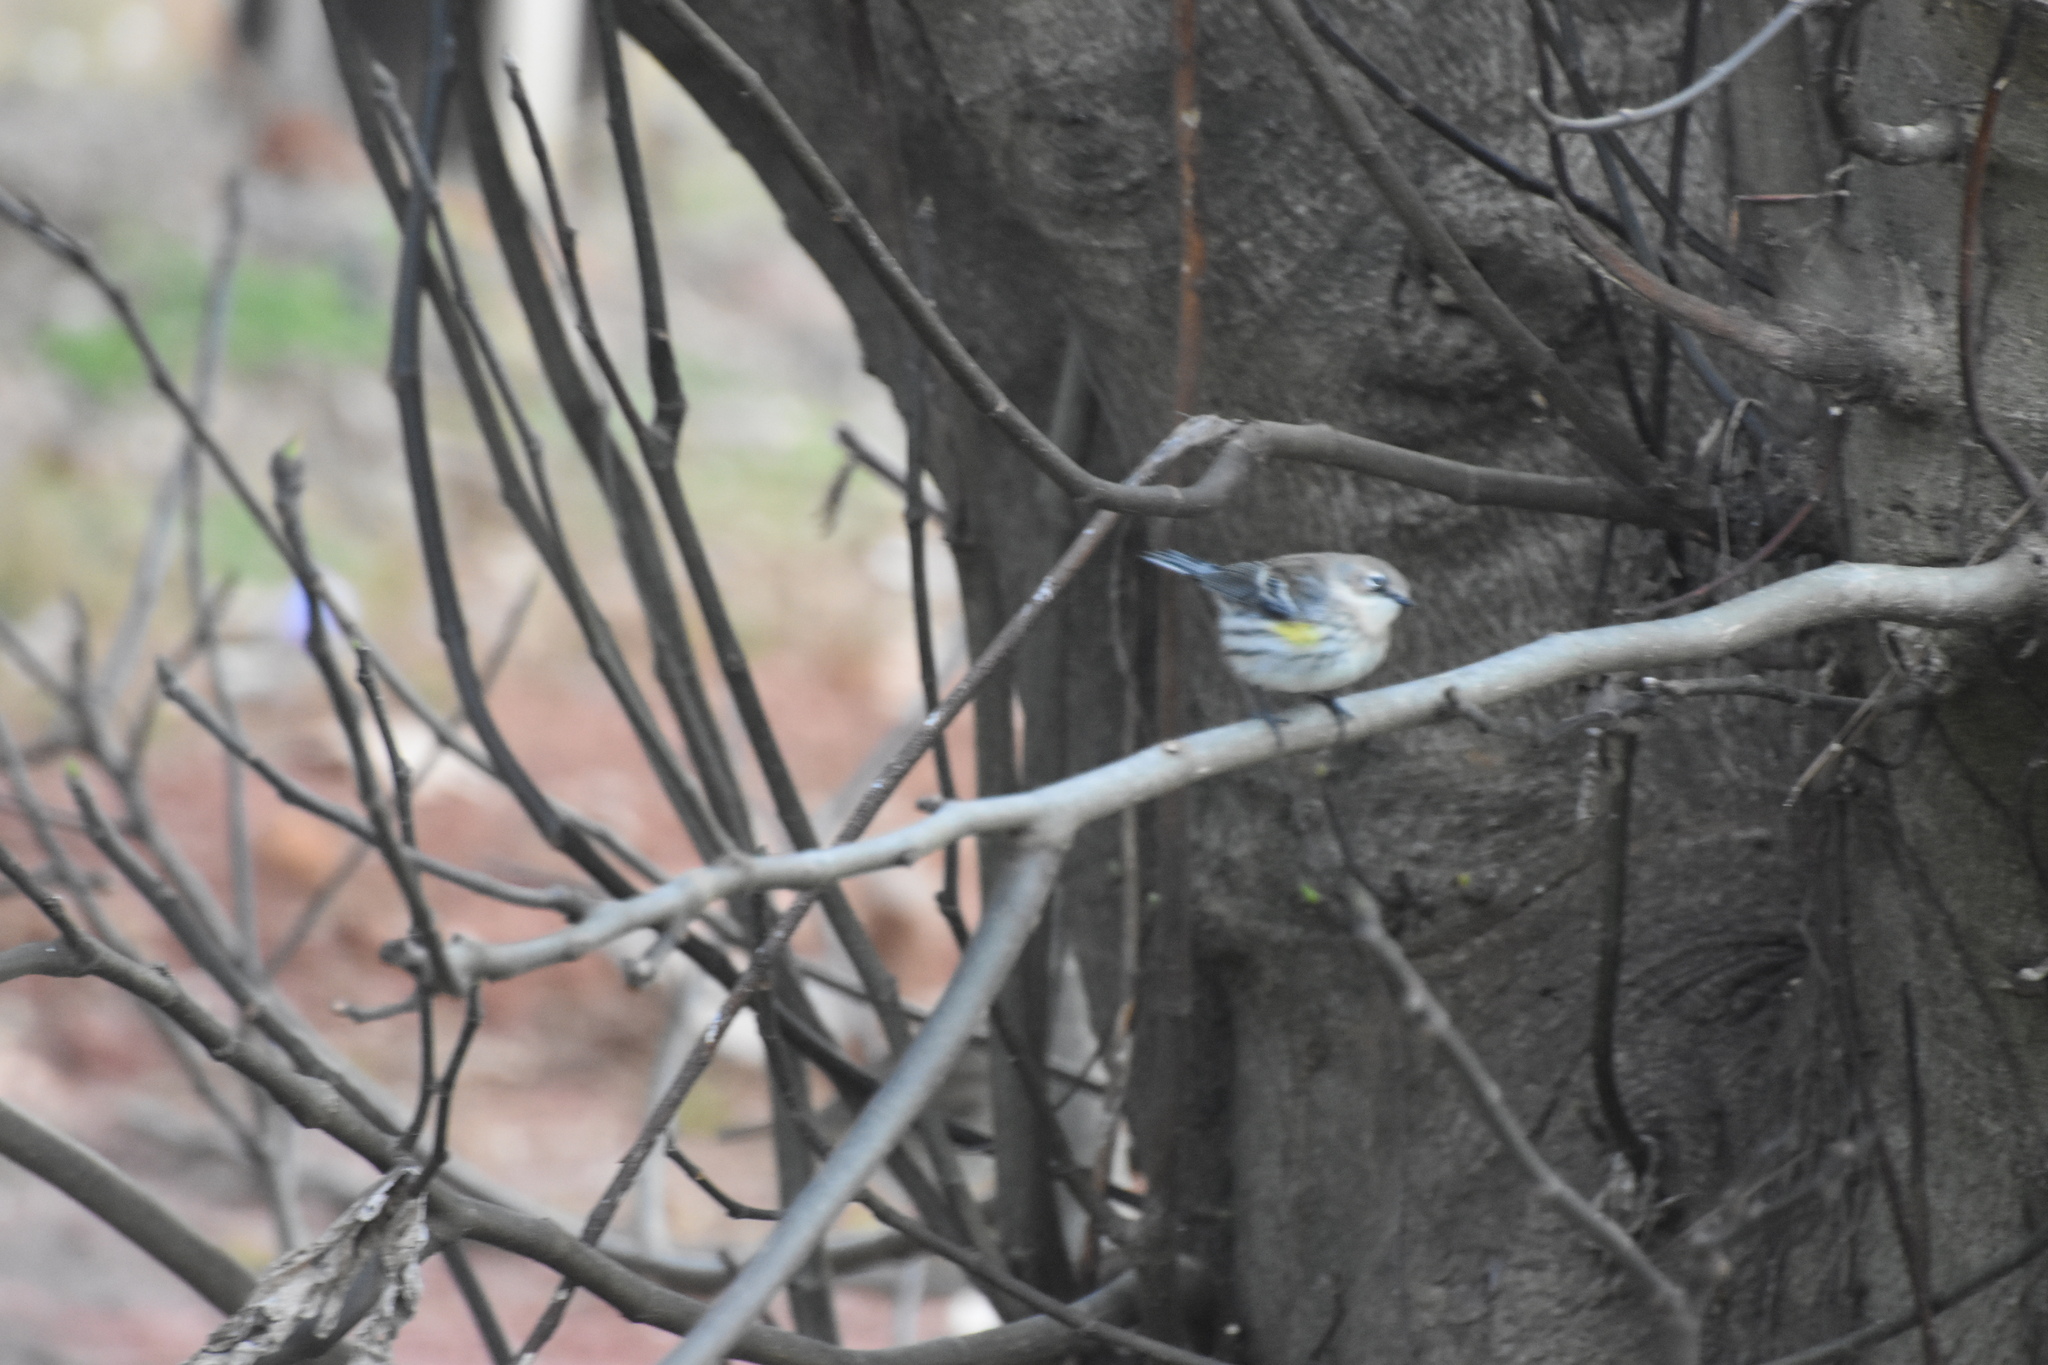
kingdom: Animalia
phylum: Chordata
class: Aves
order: Passeriformes
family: Parulidae
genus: Setophaga
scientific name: Setophaga coronata
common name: Myrtle warbler
